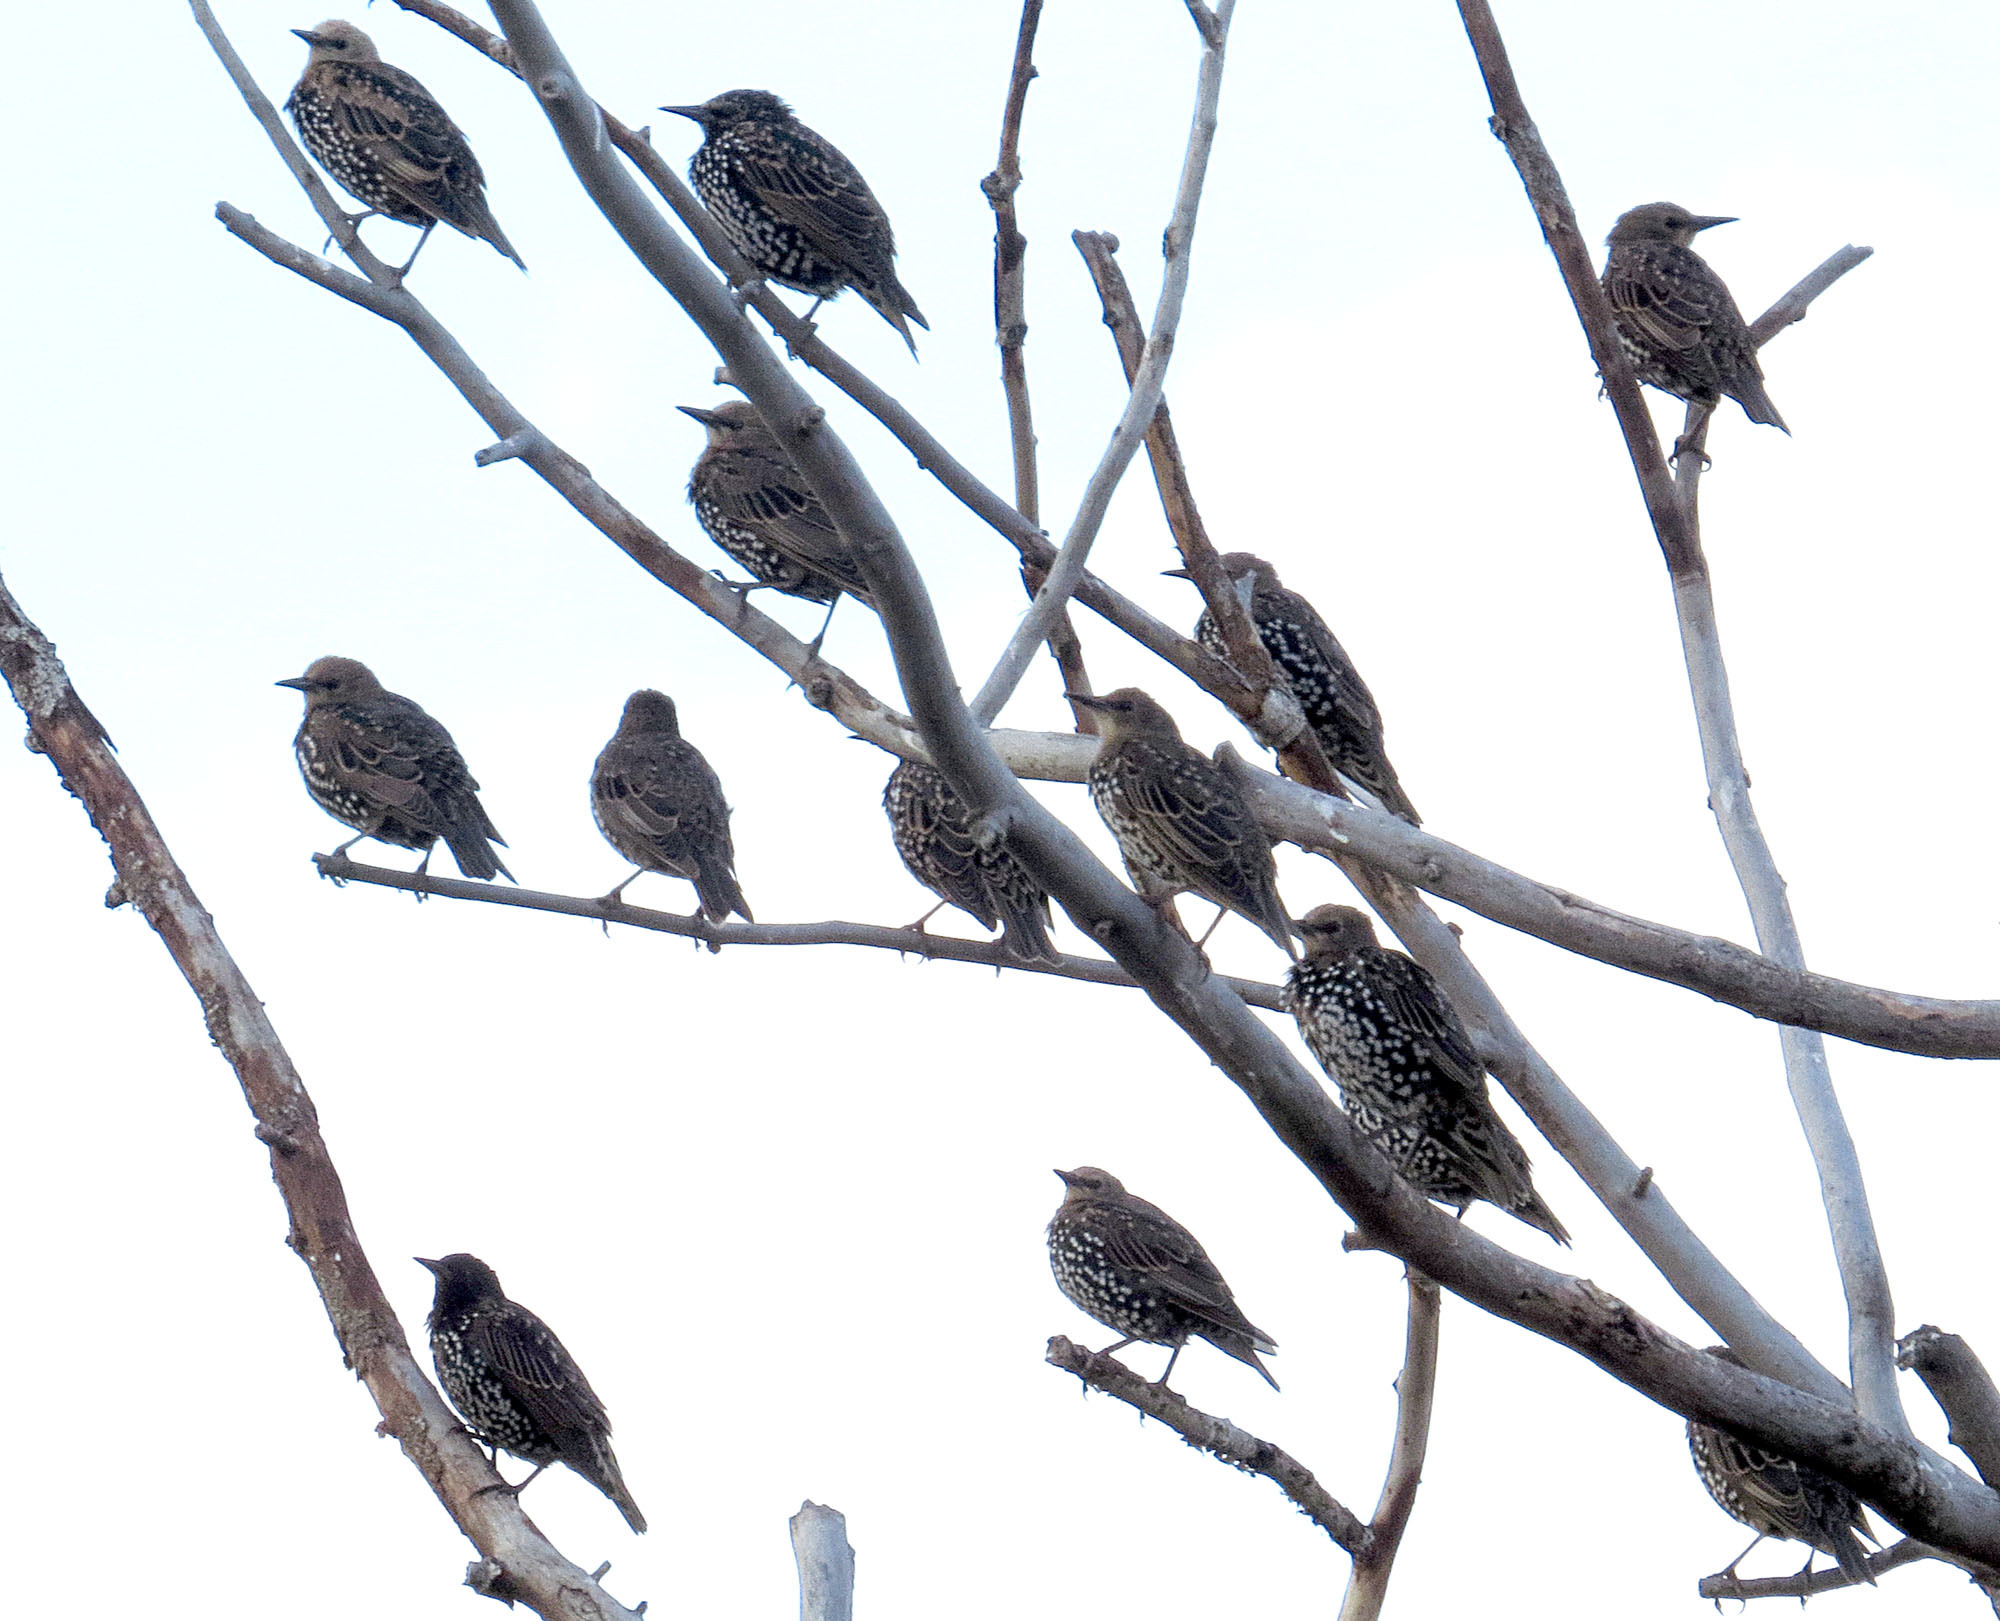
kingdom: Animalia
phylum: Chordata
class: Aves
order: Passeriformes
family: Sturnidae
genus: Sturnus
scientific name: Sturnus vulgaris
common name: Common starling
